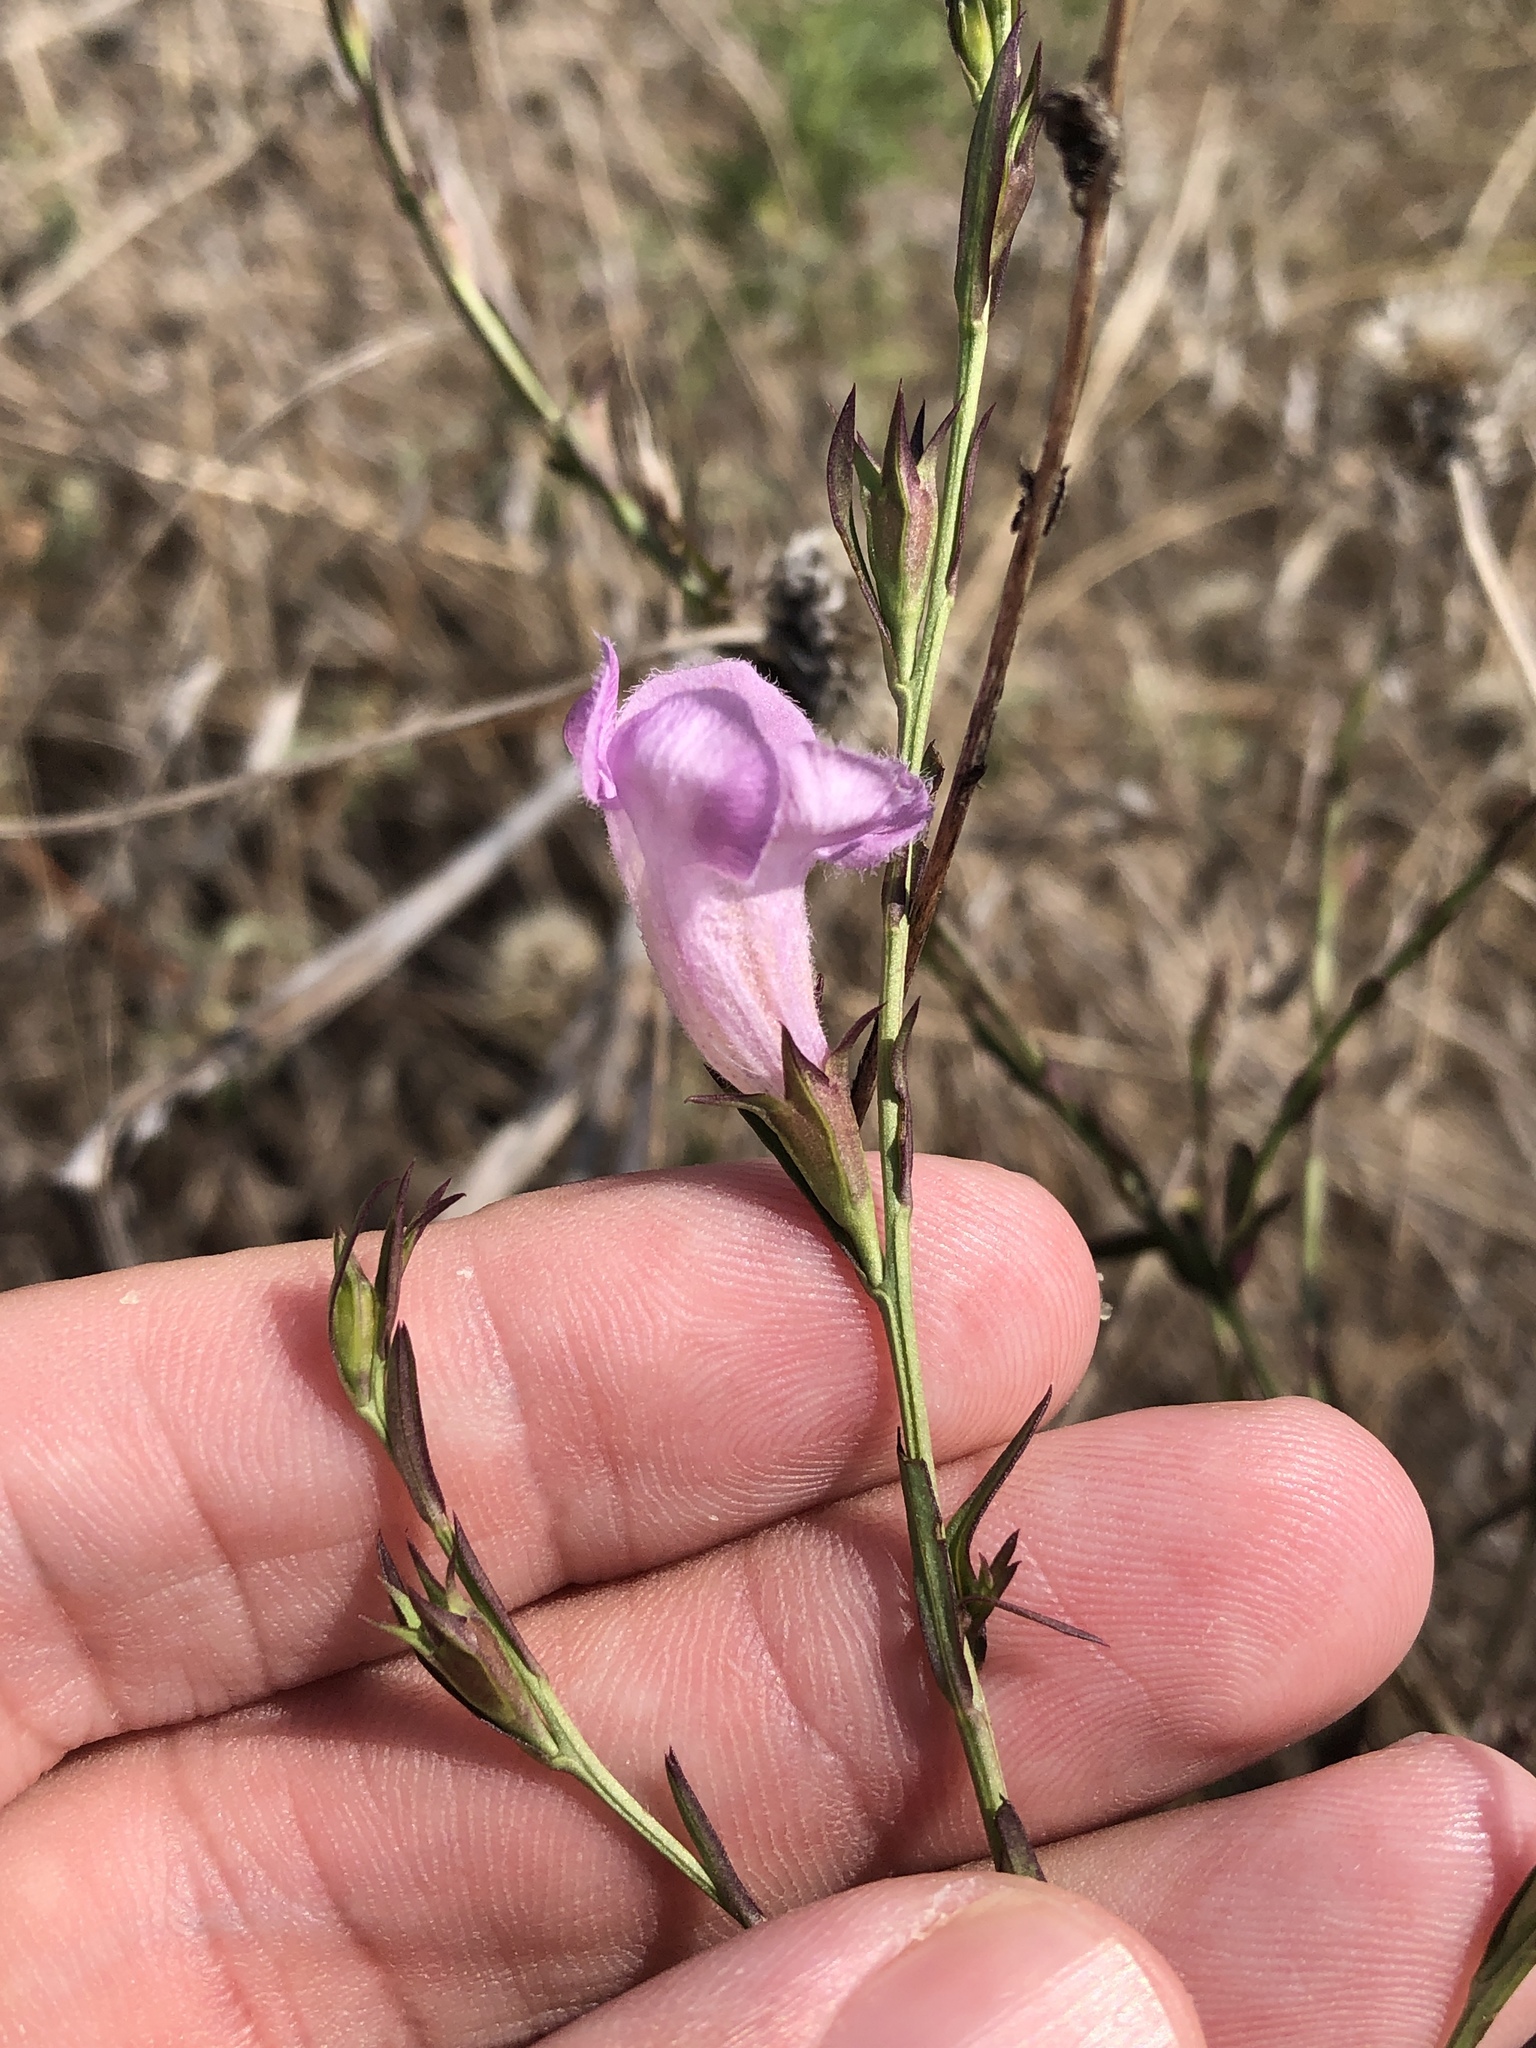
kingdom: Plantae
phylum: Tracheophyta
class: Magnoliopsida
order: Lamiales
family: Orobanchaceae
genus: Agalinis
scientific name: Agalinis heterophylla
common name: Prairie agalinis
